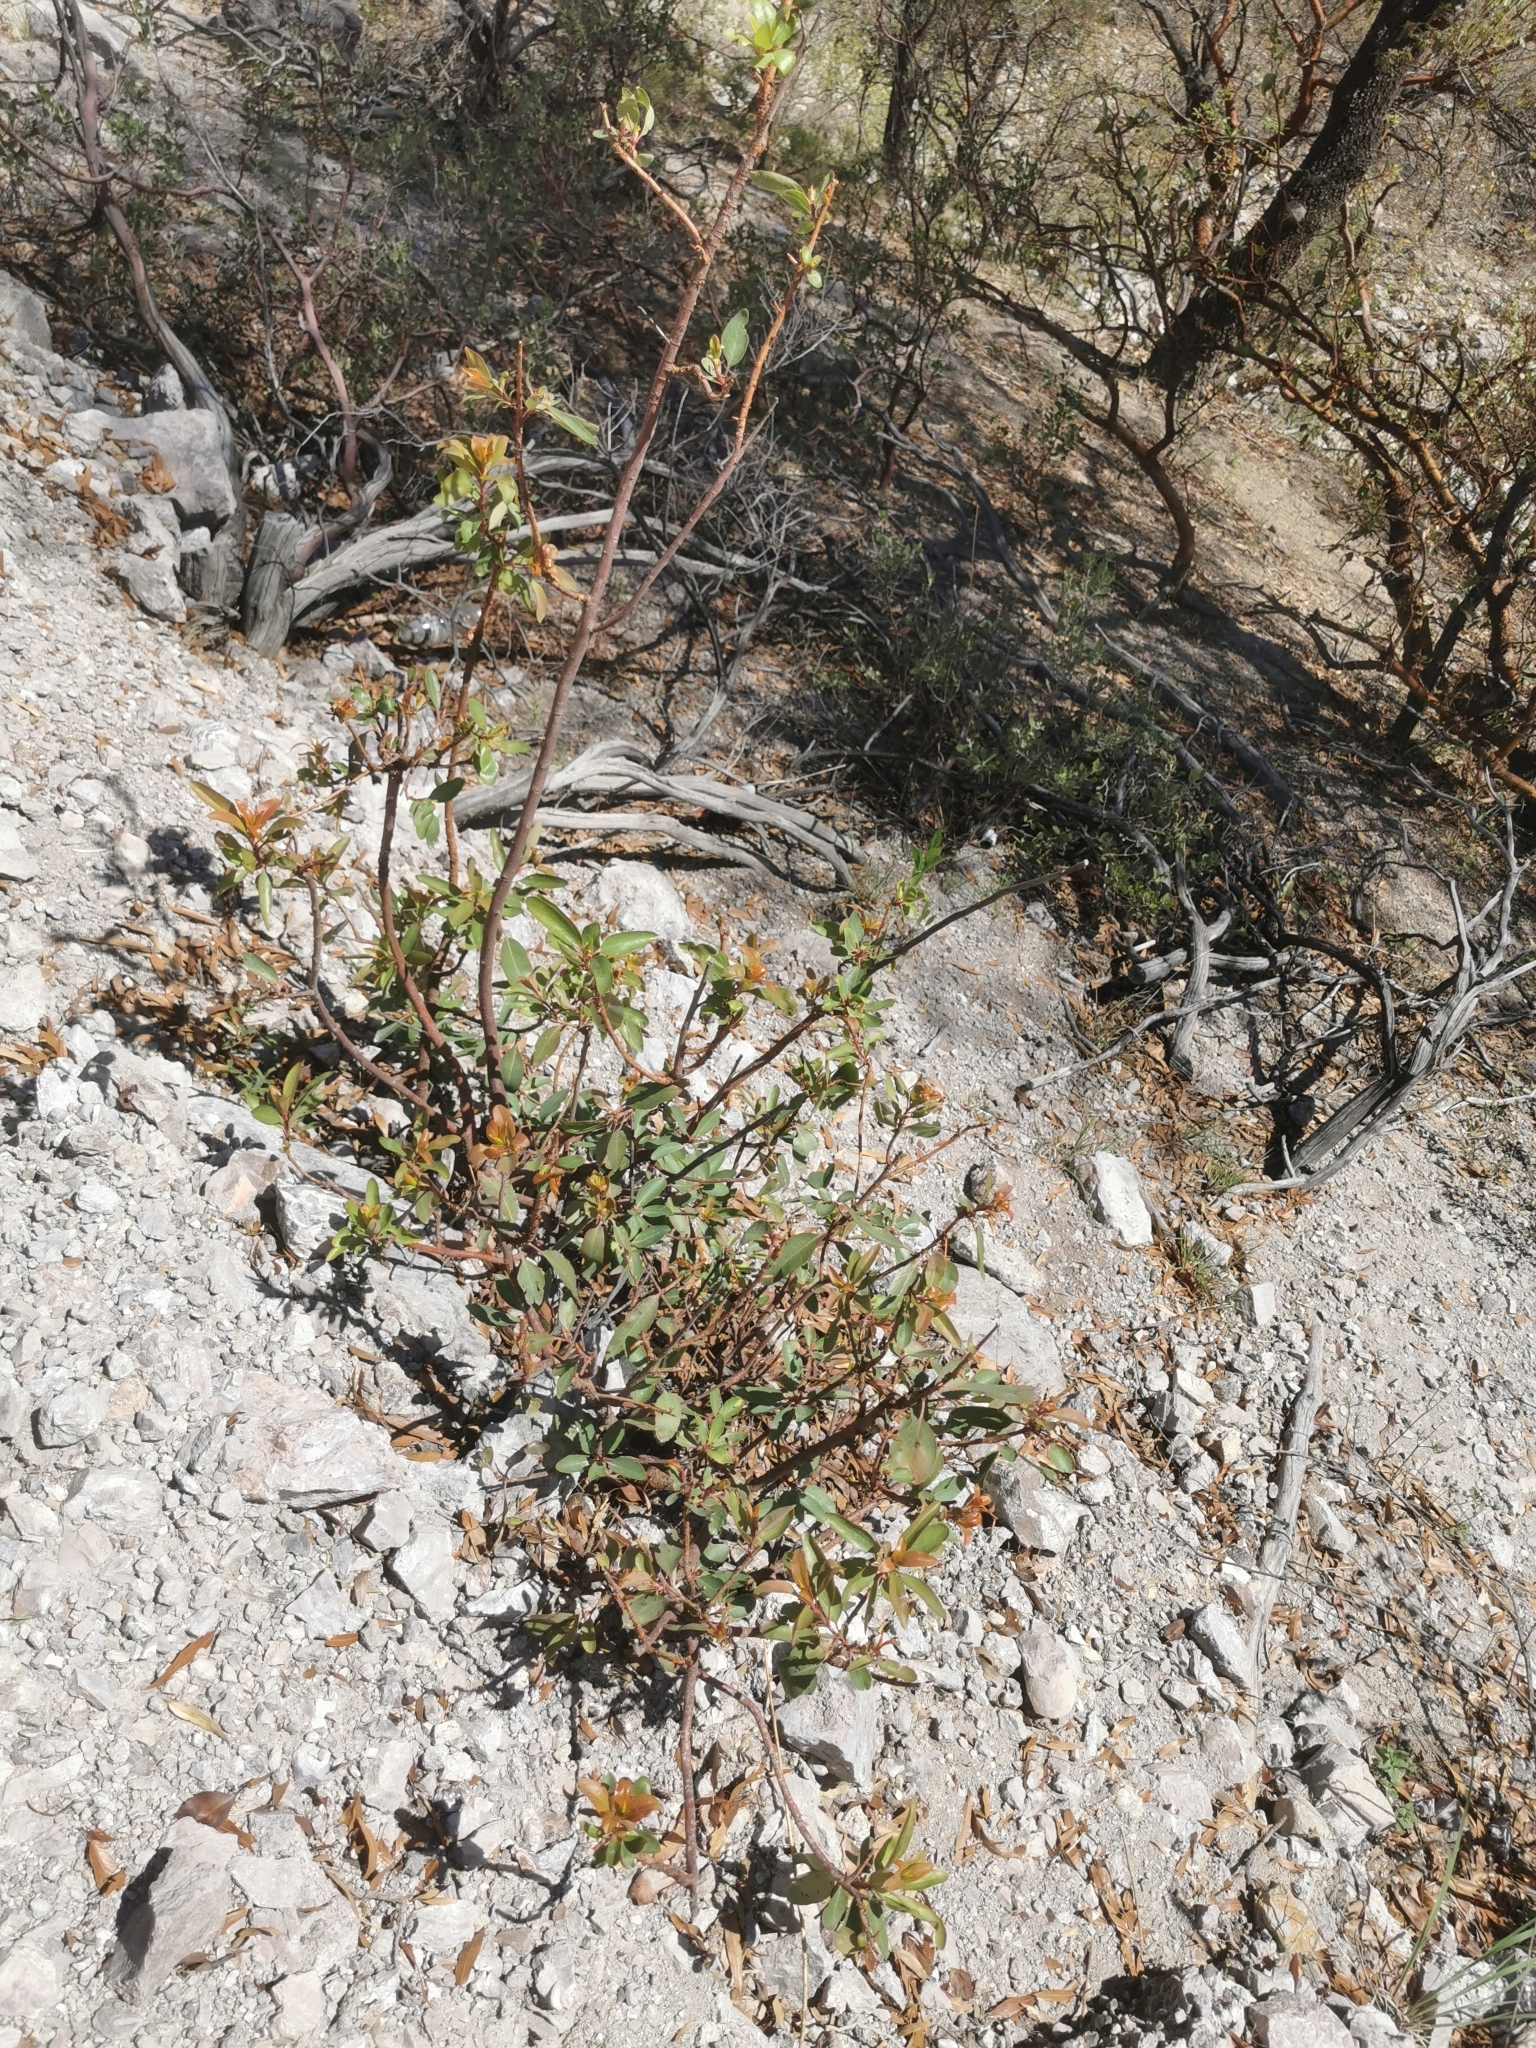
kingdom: Plantae
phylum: Tracheophyta
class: Magnoliopsida
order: Ericales
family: Ericaceae
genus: Arbutus
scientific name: Arbutus arizonica
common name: Arizona madrone
